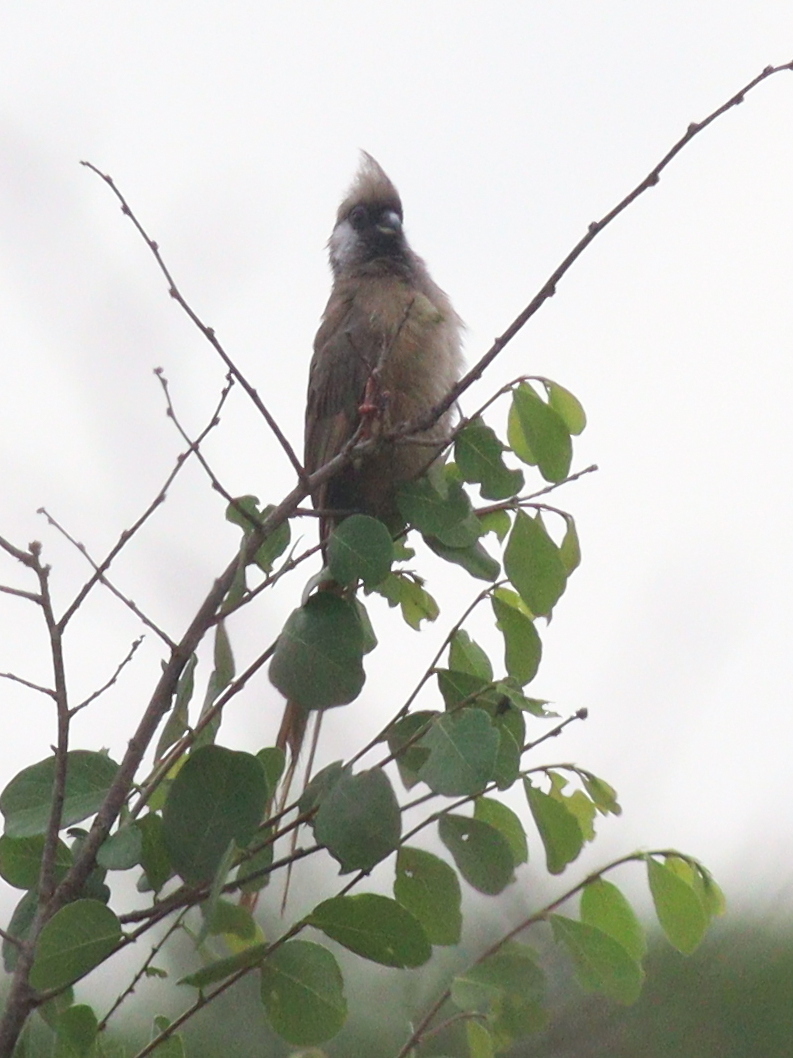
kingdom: Animalia
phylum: Chordata
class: Aves
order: Coliiformes
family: Coliidae
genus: Colius
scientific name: Colius striatus
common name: Speckled mousebird
